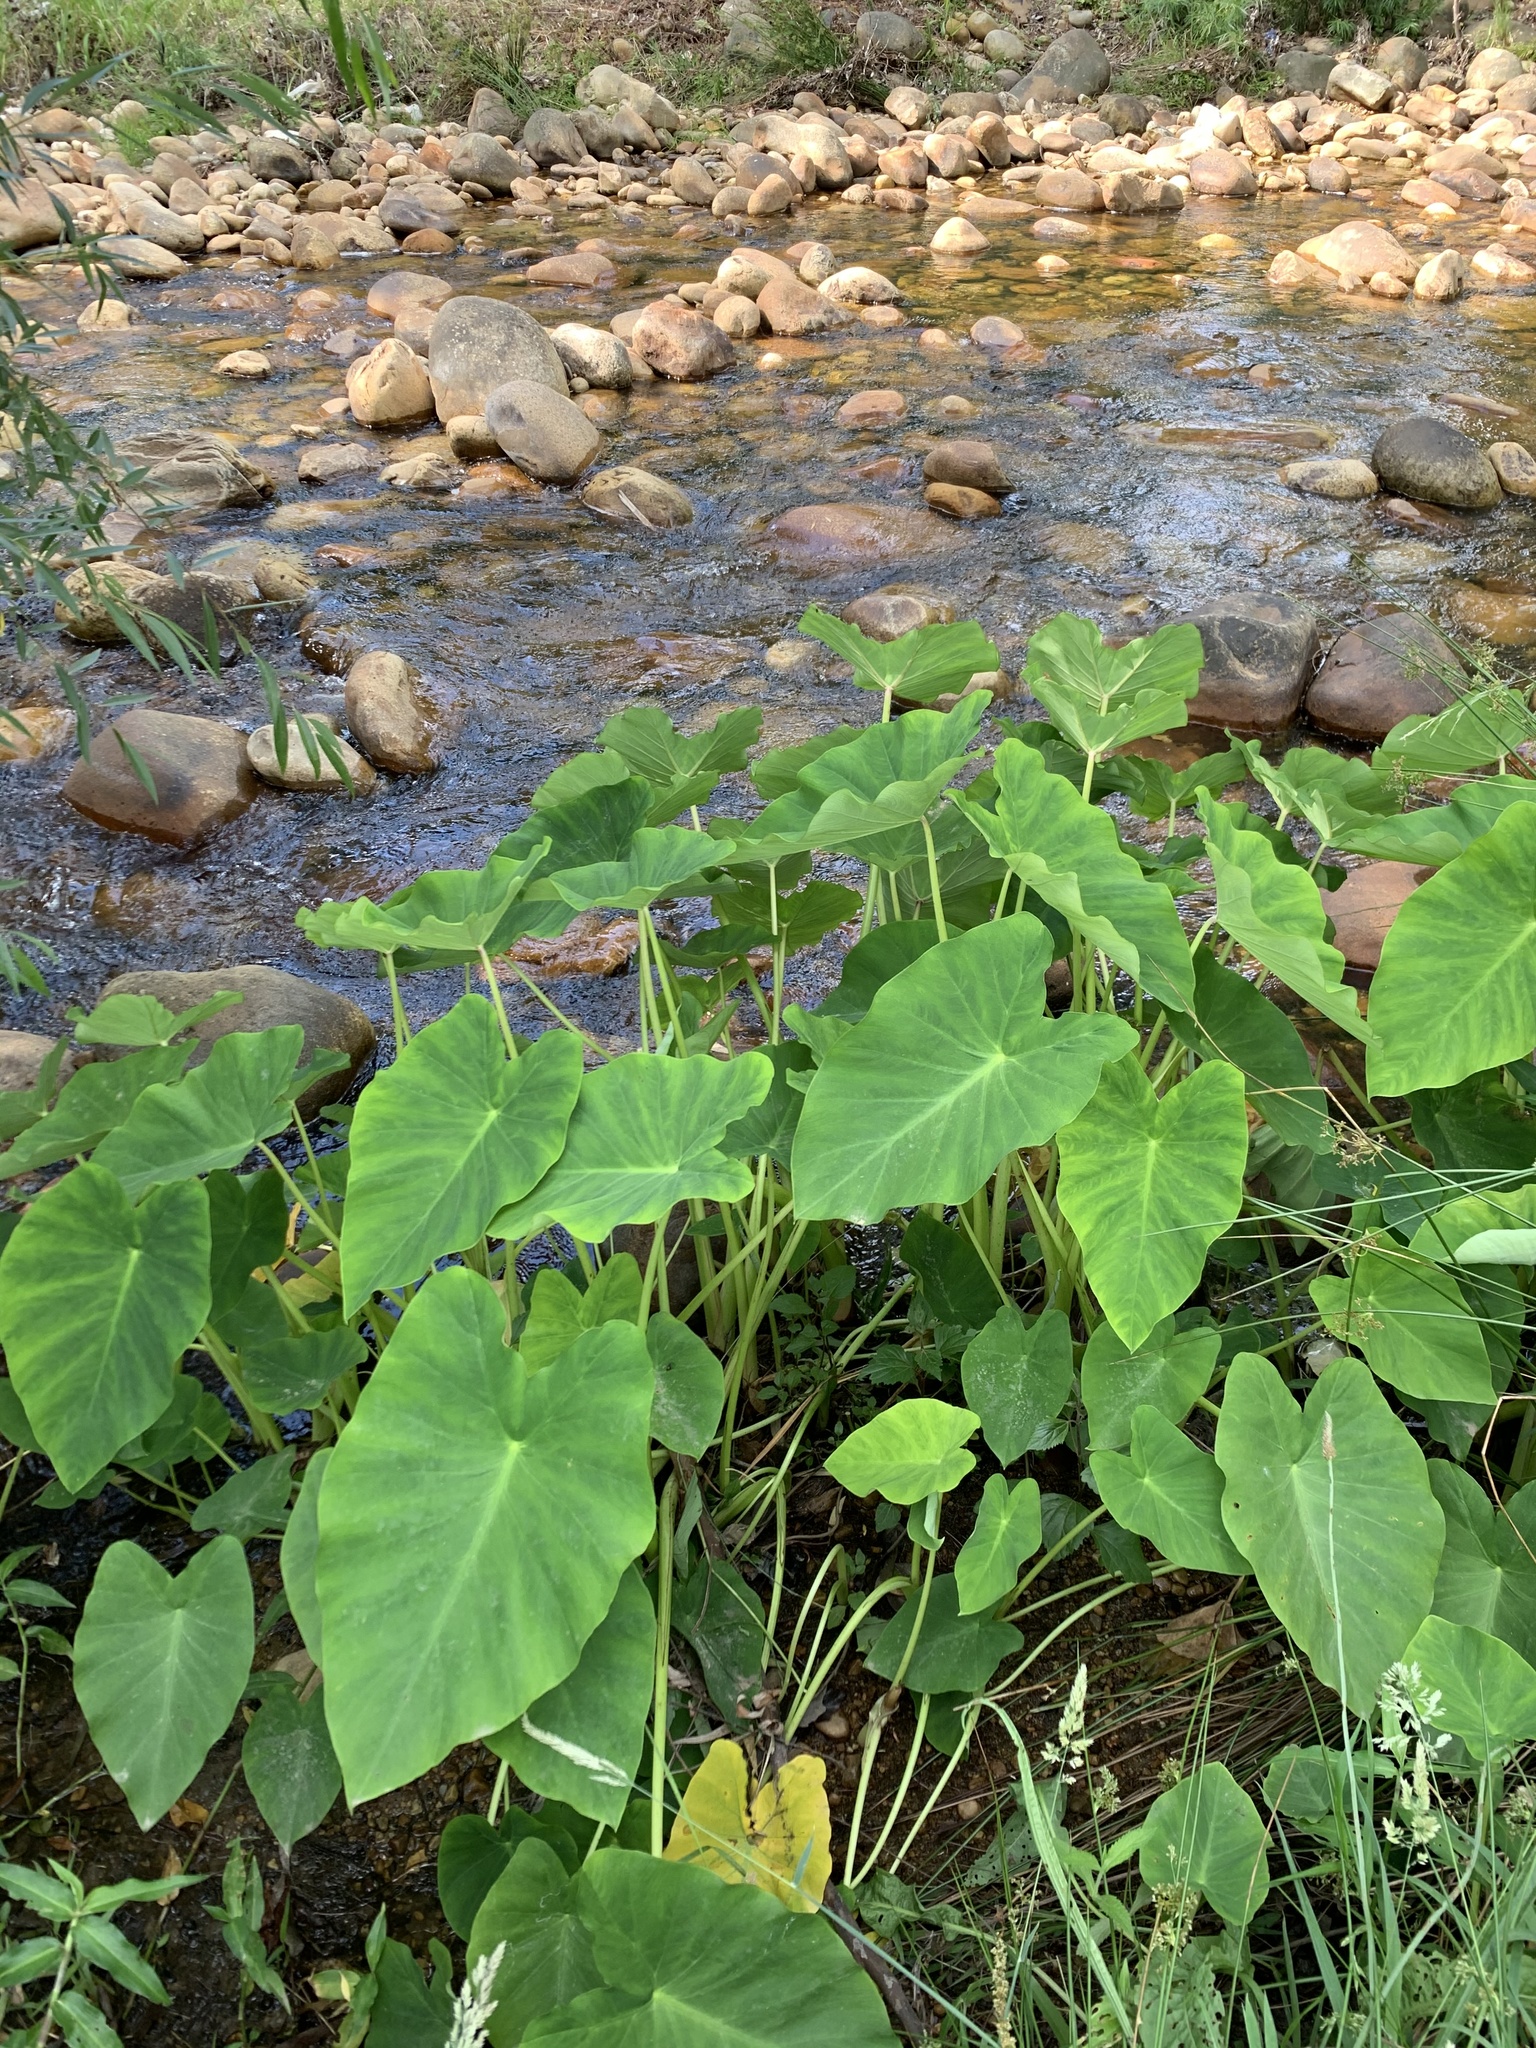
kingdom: Plantae
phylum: Tracheophyta
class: Liliopsida
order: Alismatales
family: Araceae
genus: Colocasia
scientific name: Colocasia esculenta
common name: Taro
